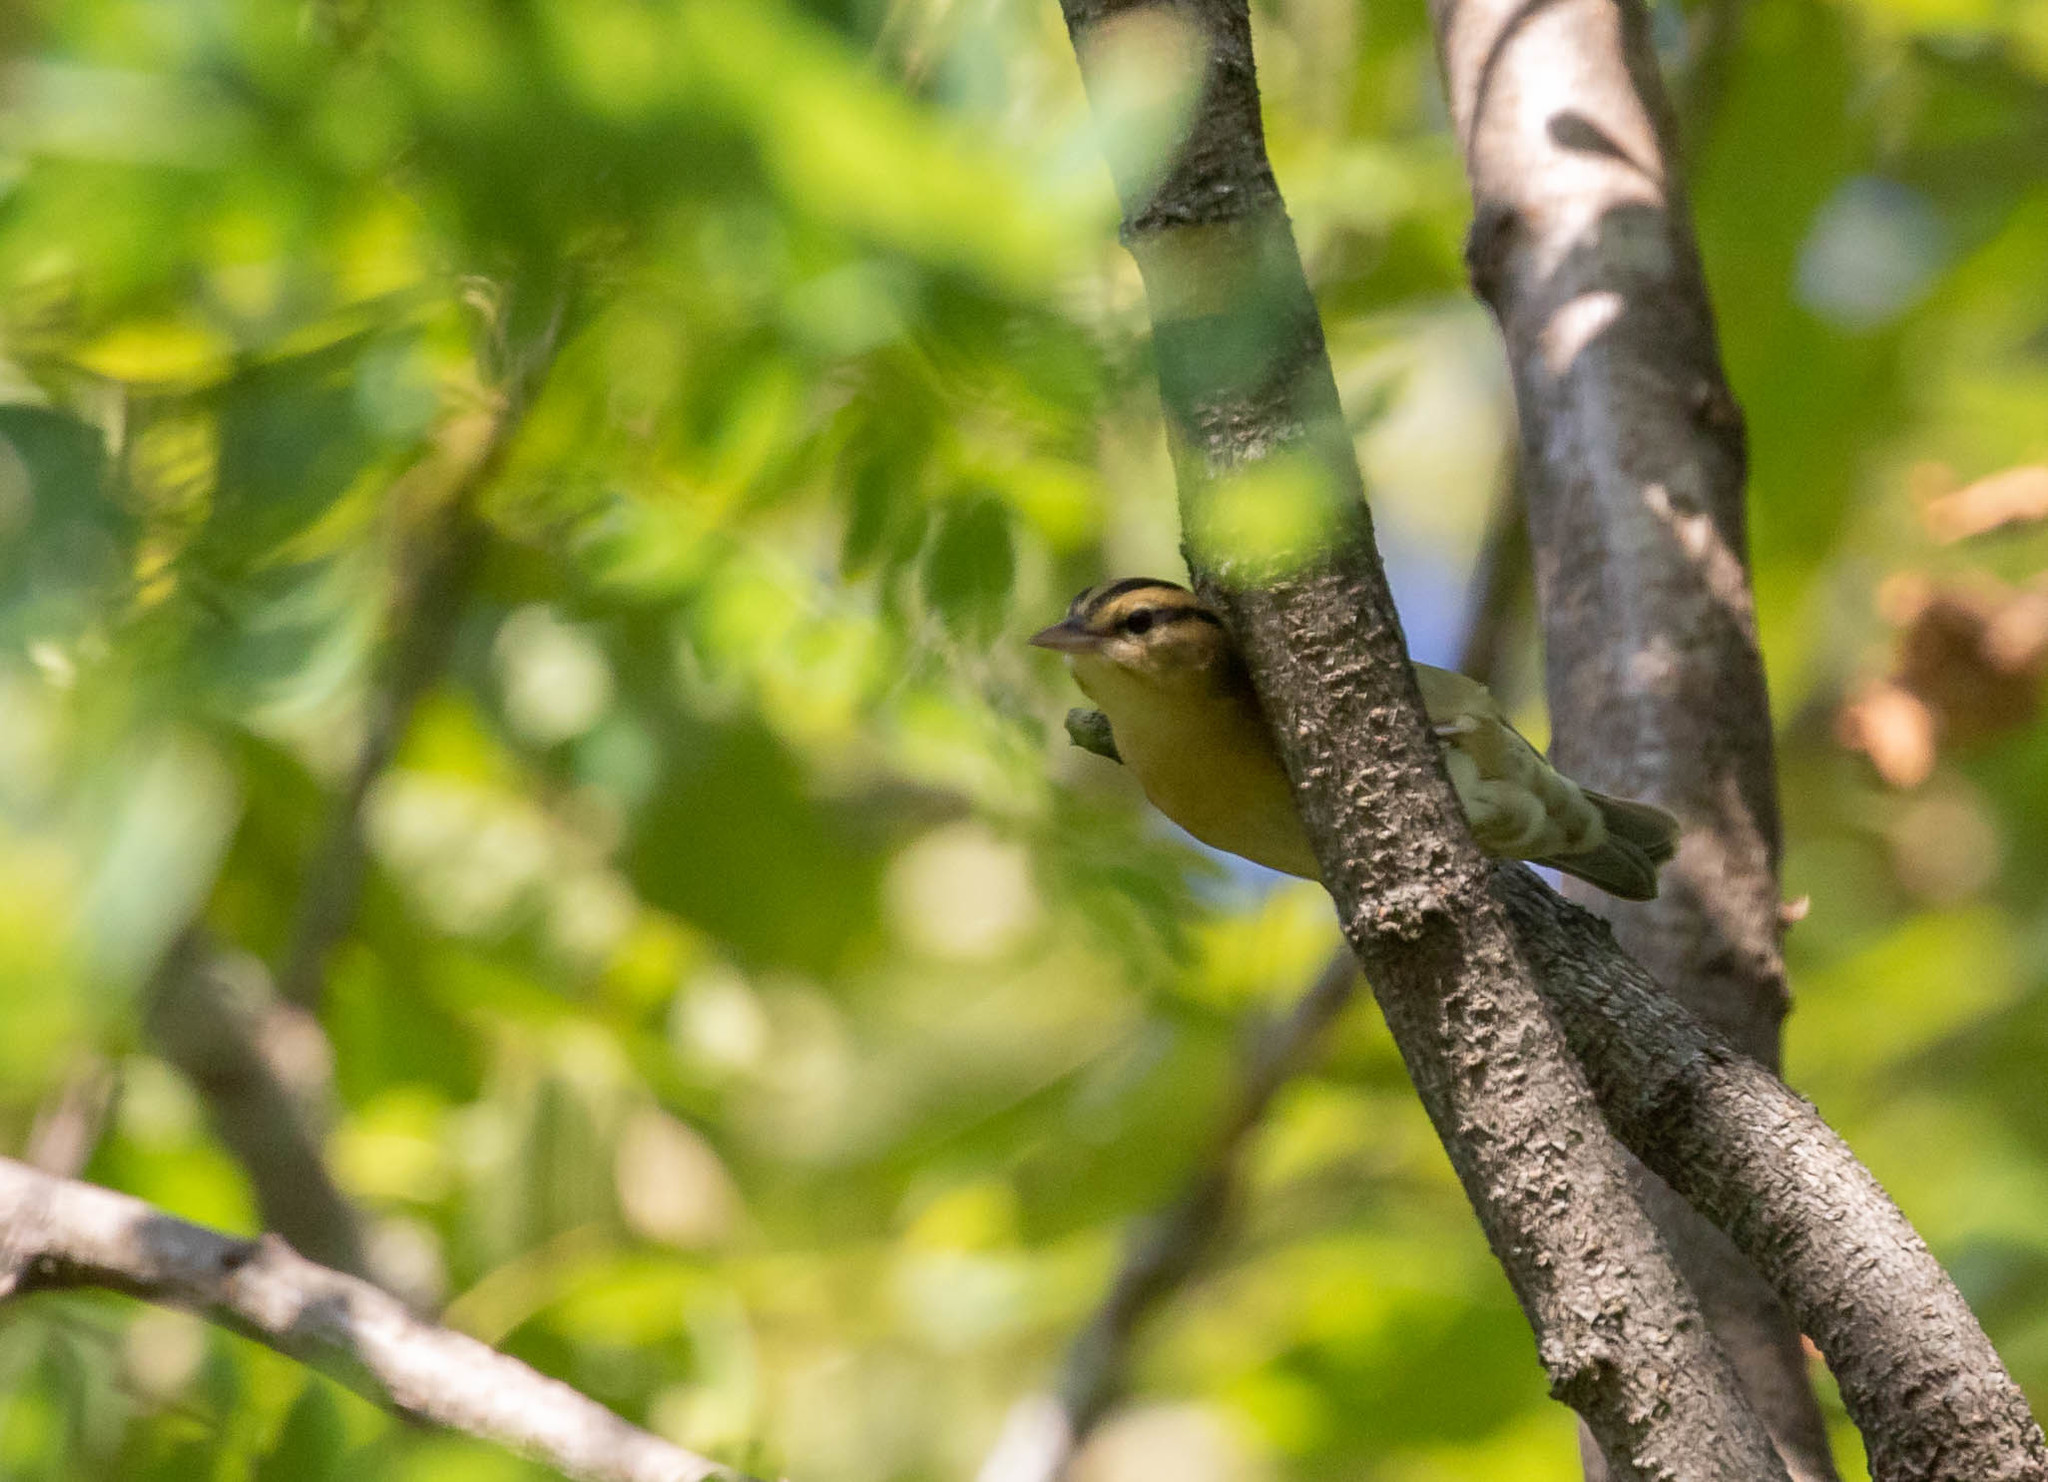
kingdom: Animalia
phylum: Chordata
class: Aves
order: Passeriformes
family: Parulidae
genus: Helmitheros
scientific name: Helmitheros vermivorum
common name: Worm-eating warbler
